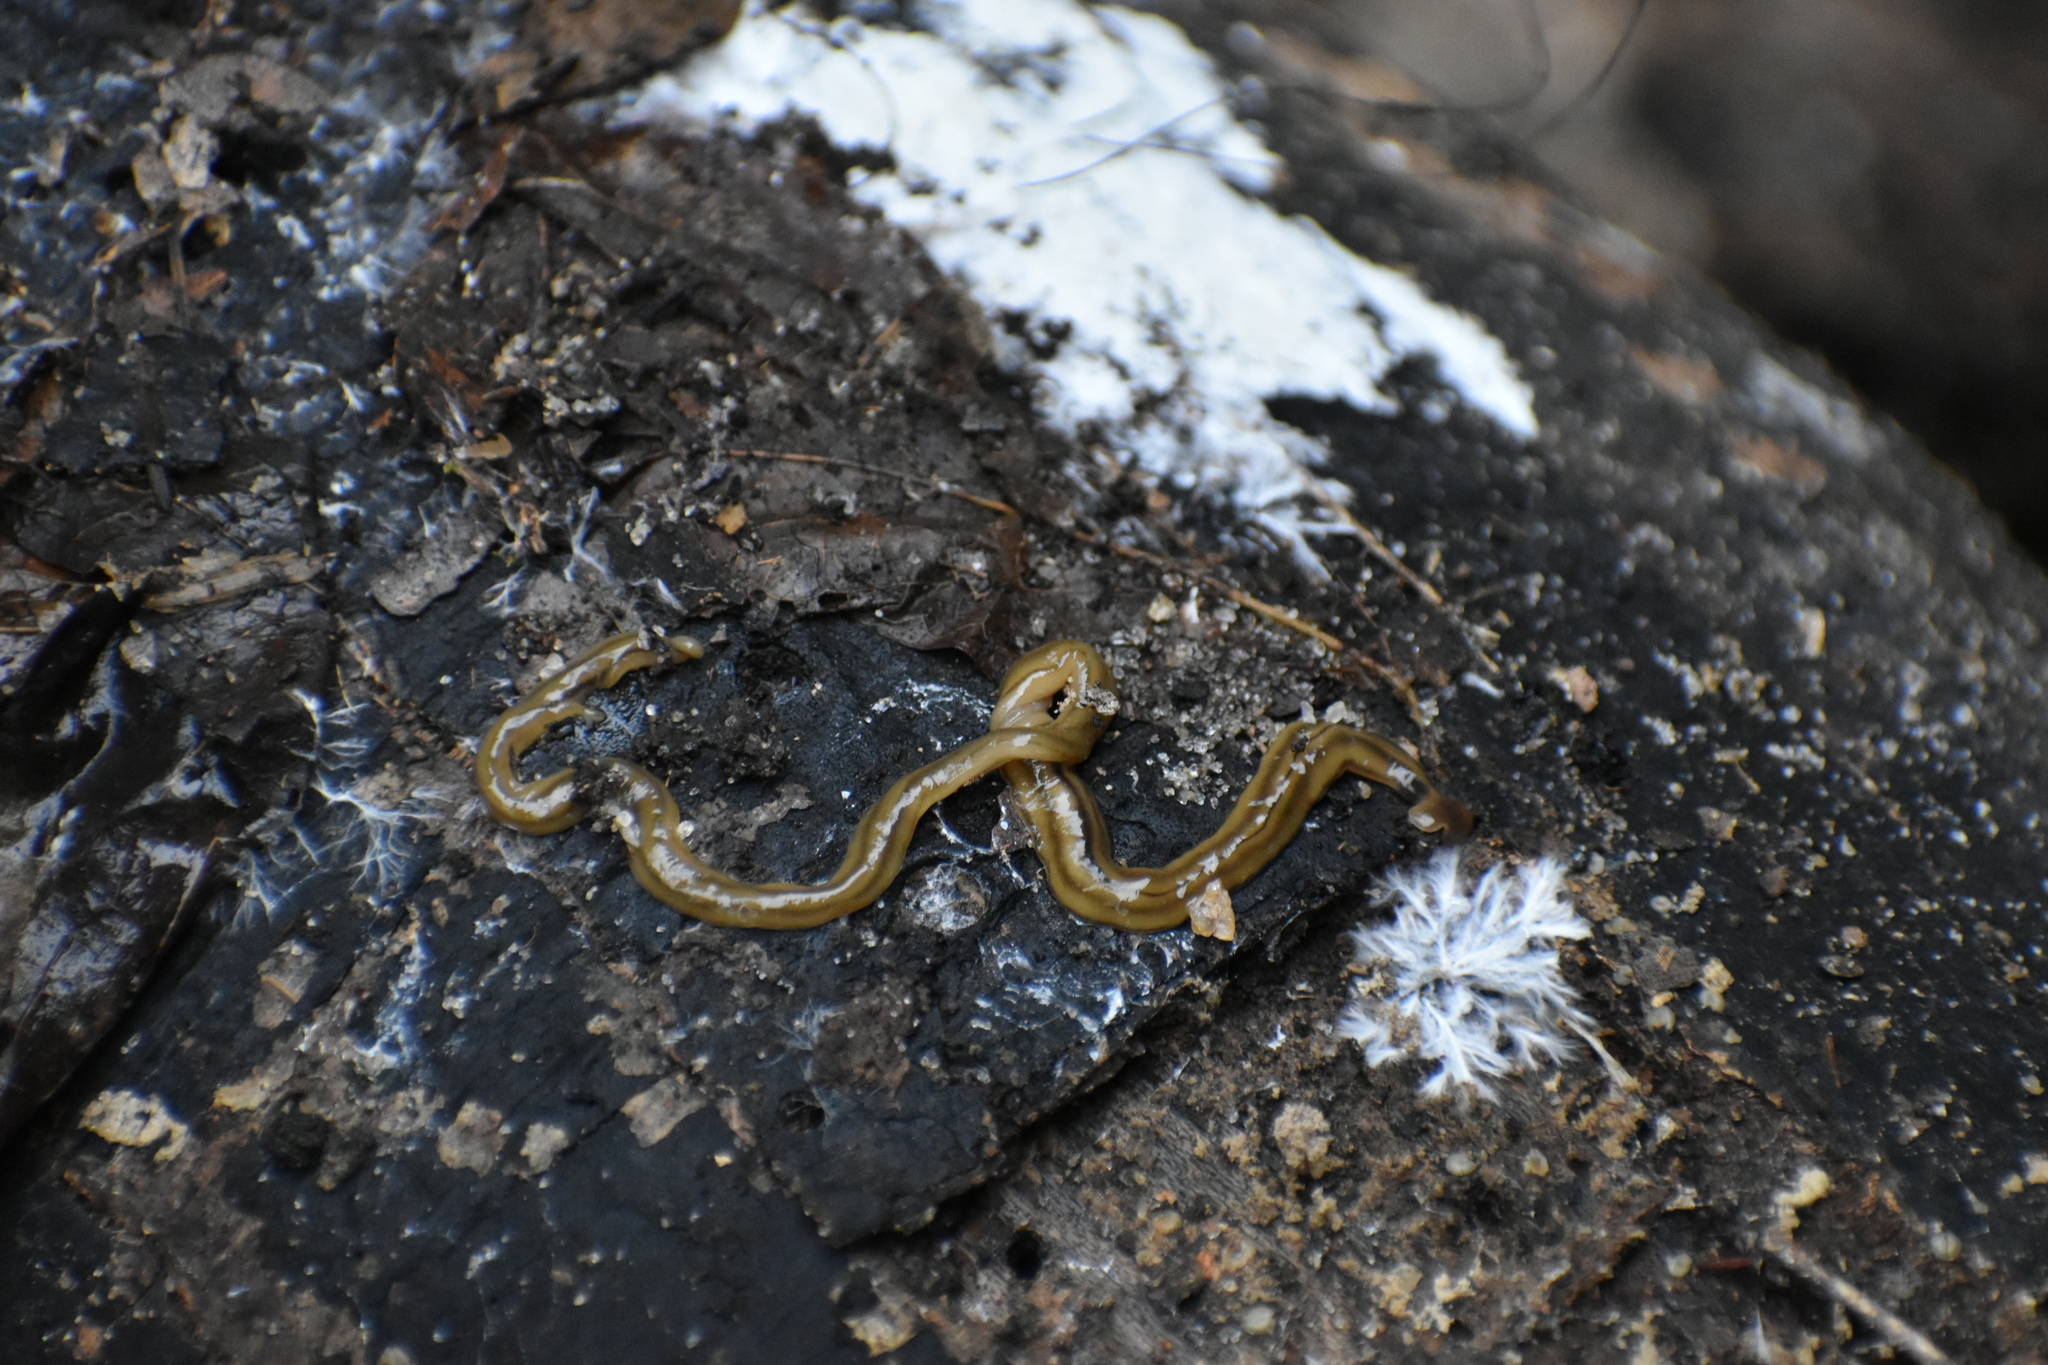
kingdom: Animalia
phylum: Platyhelminthes
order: Tricladida
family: Geoplanidae
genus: Bipalium
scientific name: Bipalium kewense
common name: Hammerhead flatworm
